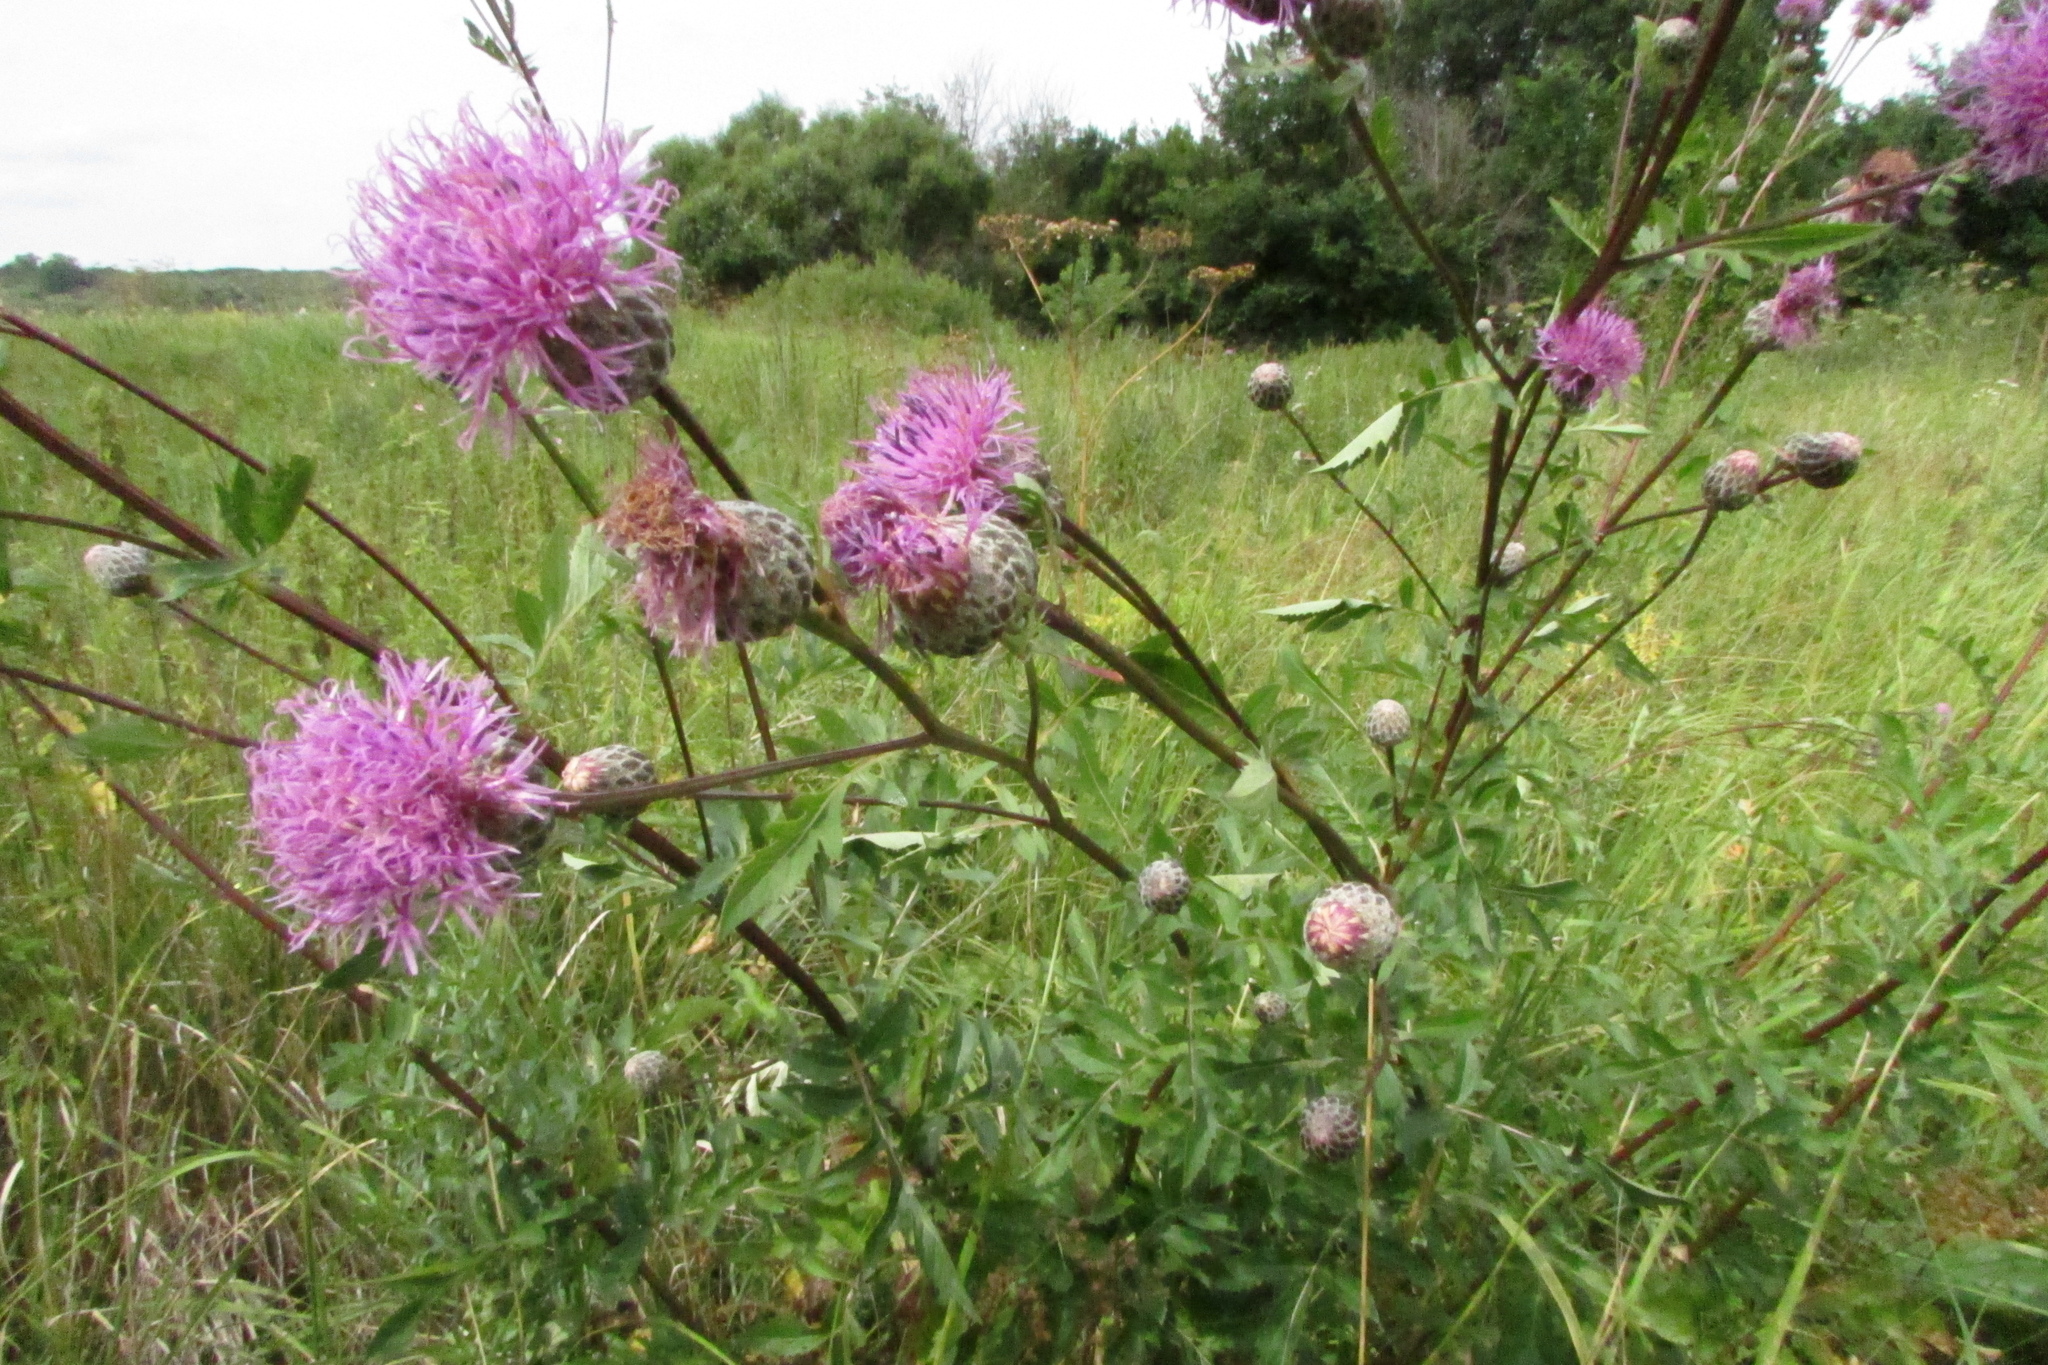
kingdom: Plantae
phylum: Tracheophyta
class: Magnoliopsida
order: Asterales
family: Asteraceae
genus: Serratula
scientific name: Serratula coronata
